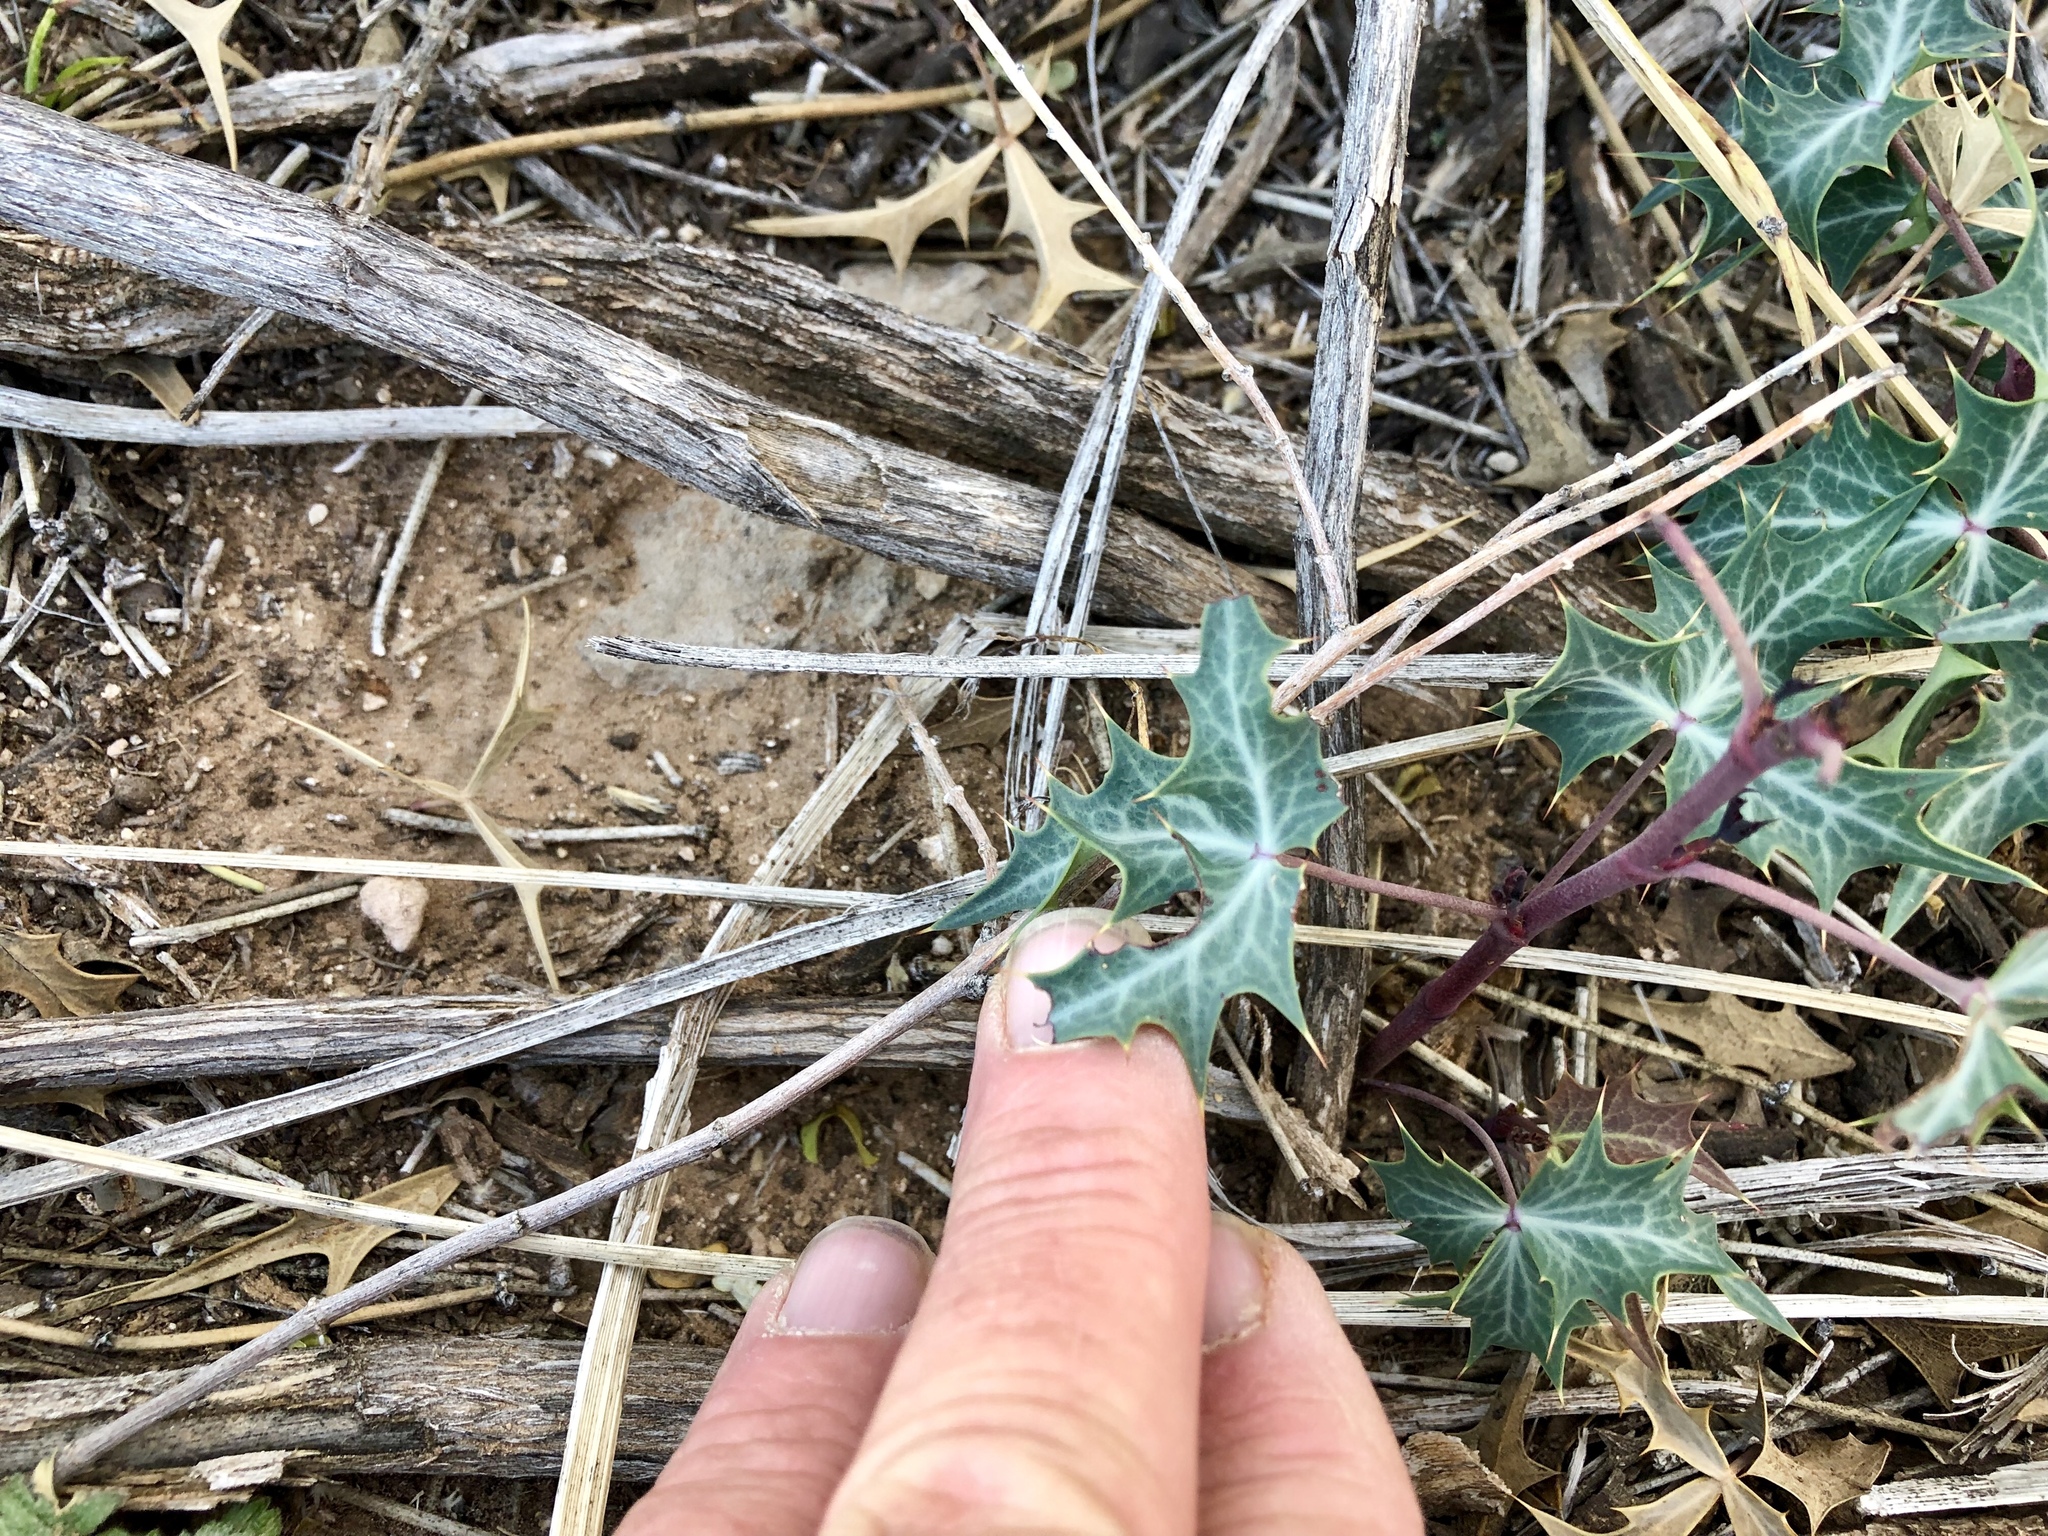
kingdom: Plantae
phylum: Tracheophyta
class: Magnoliopsida
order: Ranunculales
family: Berberidaceae
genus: Alloberberis
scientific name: Alloberberis trifoliolata
